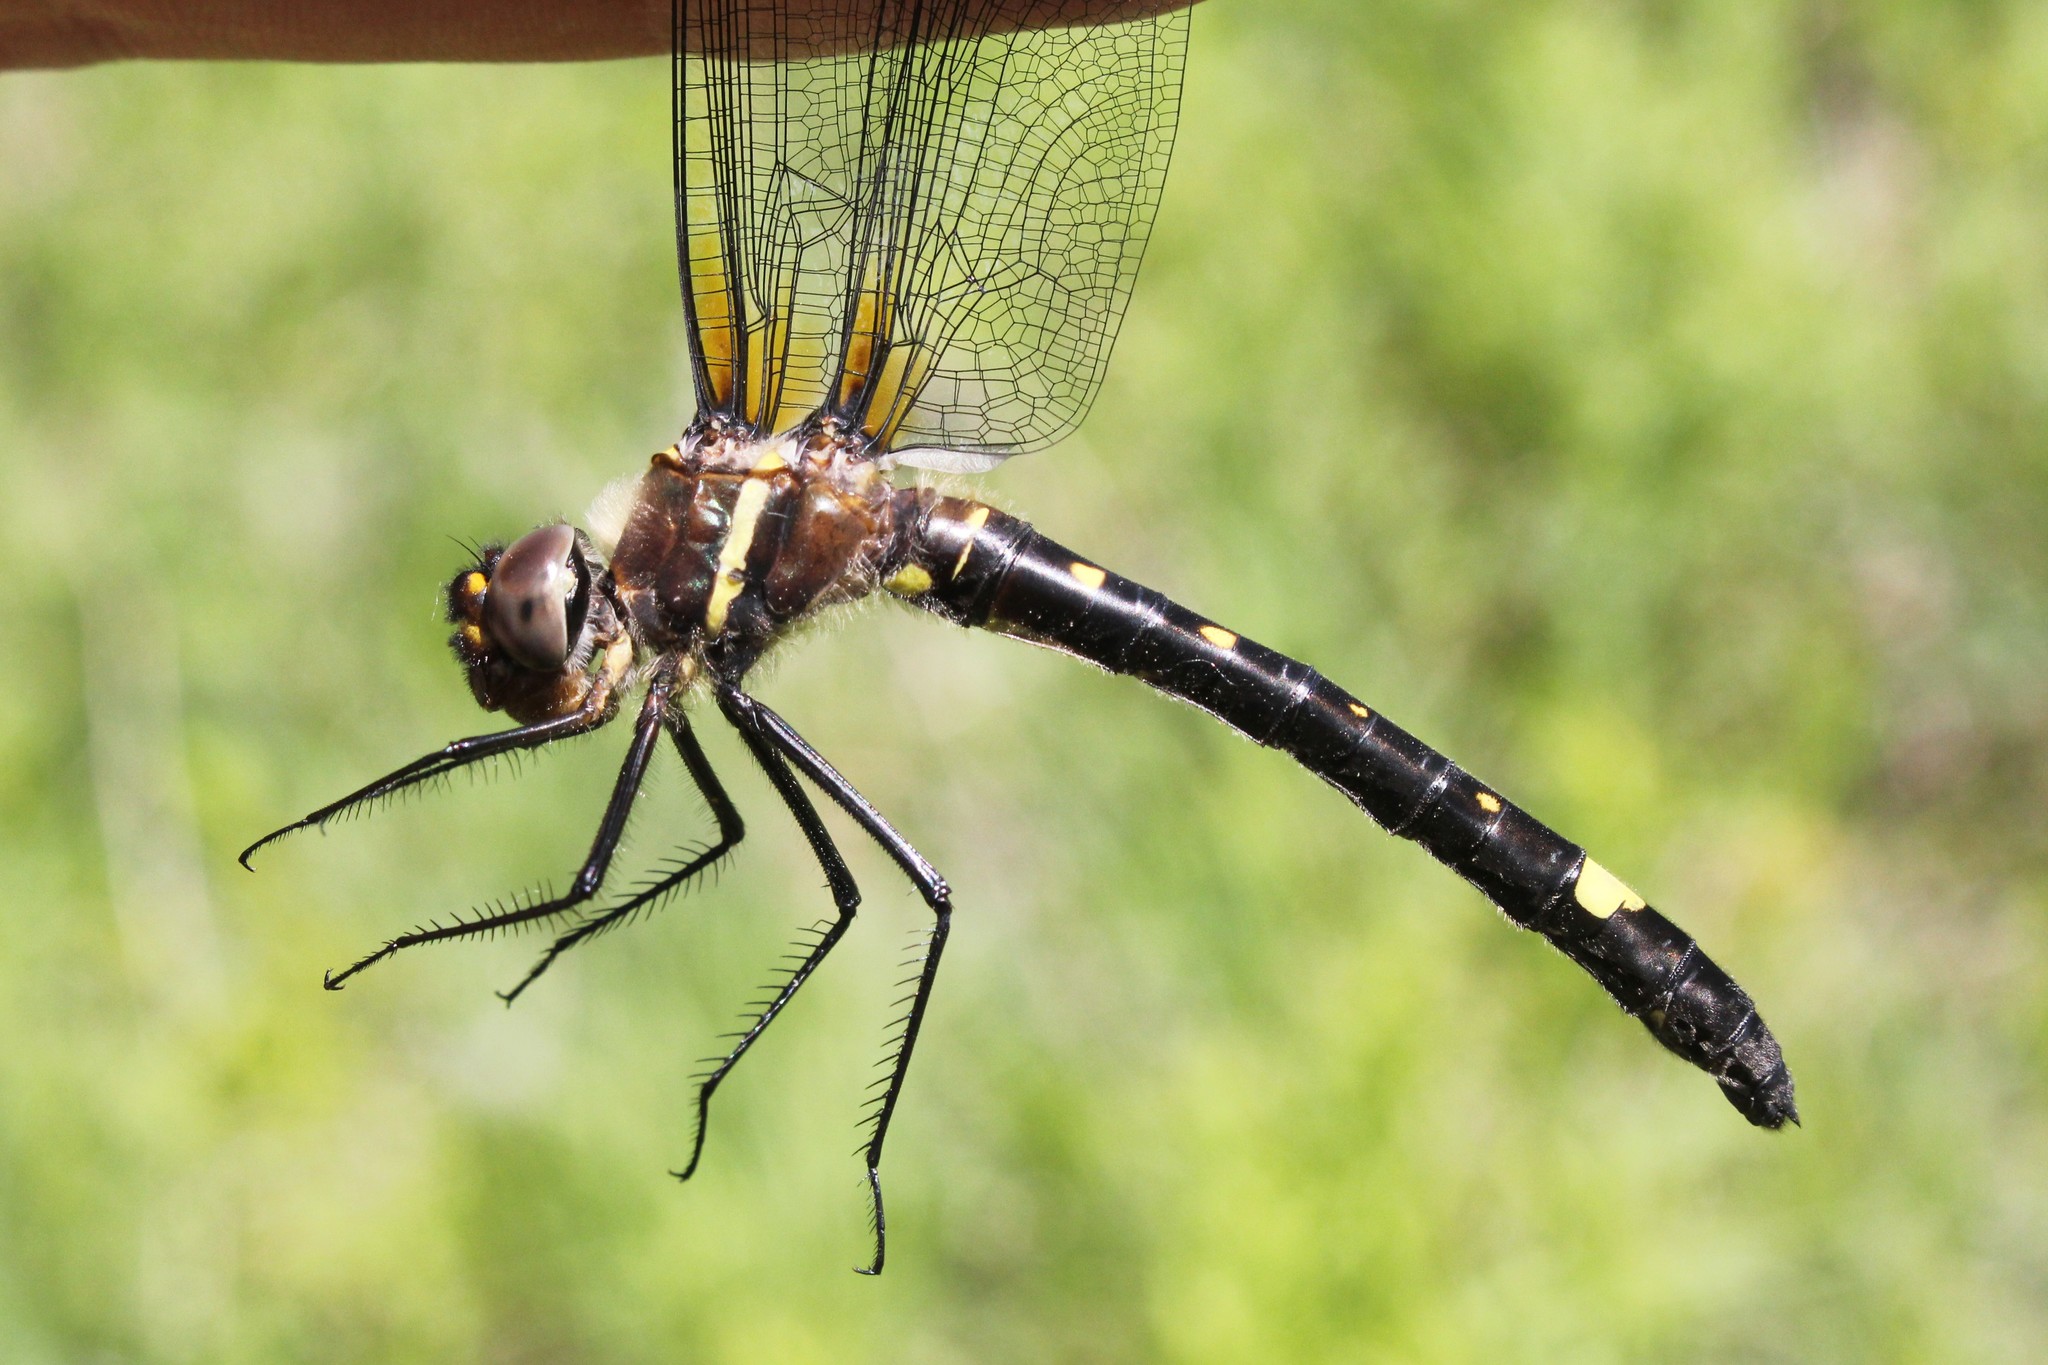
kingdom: Animalia
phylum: Arthropoda
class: Insecta
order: Odonata
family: Macromiidae
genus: Macromia
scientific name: Macromia illinoiensis
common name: Swift river cruiser
